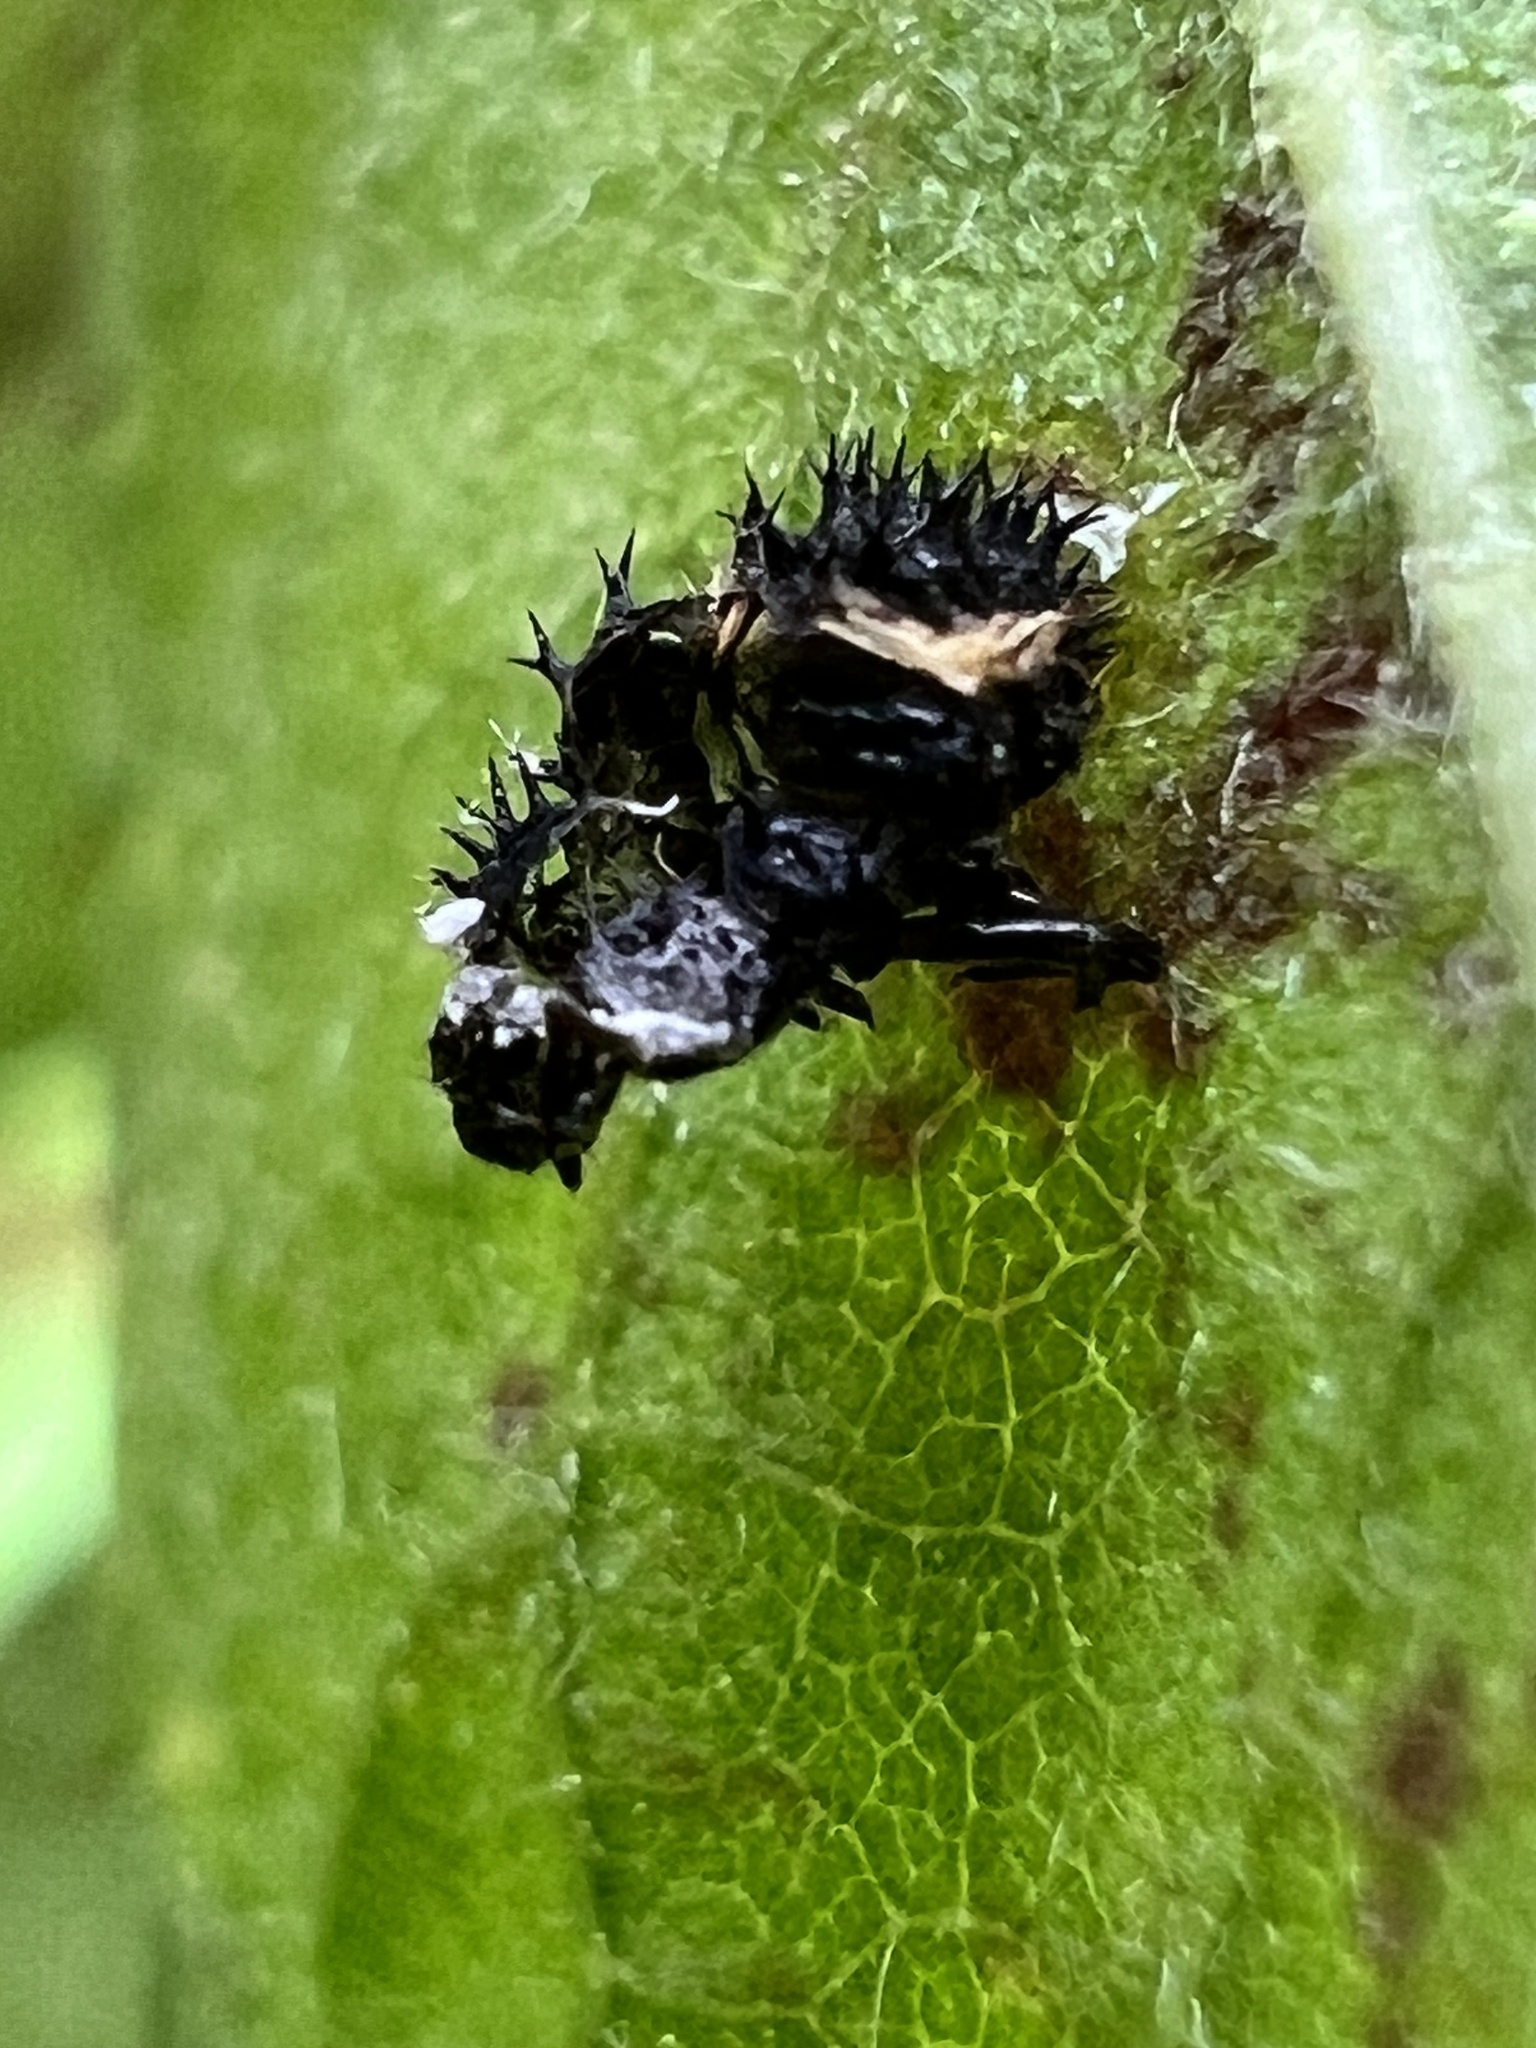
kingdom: Animalia
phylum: Arthropoda
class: Insecta
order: Coleoptera
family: Coccinellidae
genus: Harmonia
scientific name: Harmonia axyridis
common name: Harlequin ladybird
